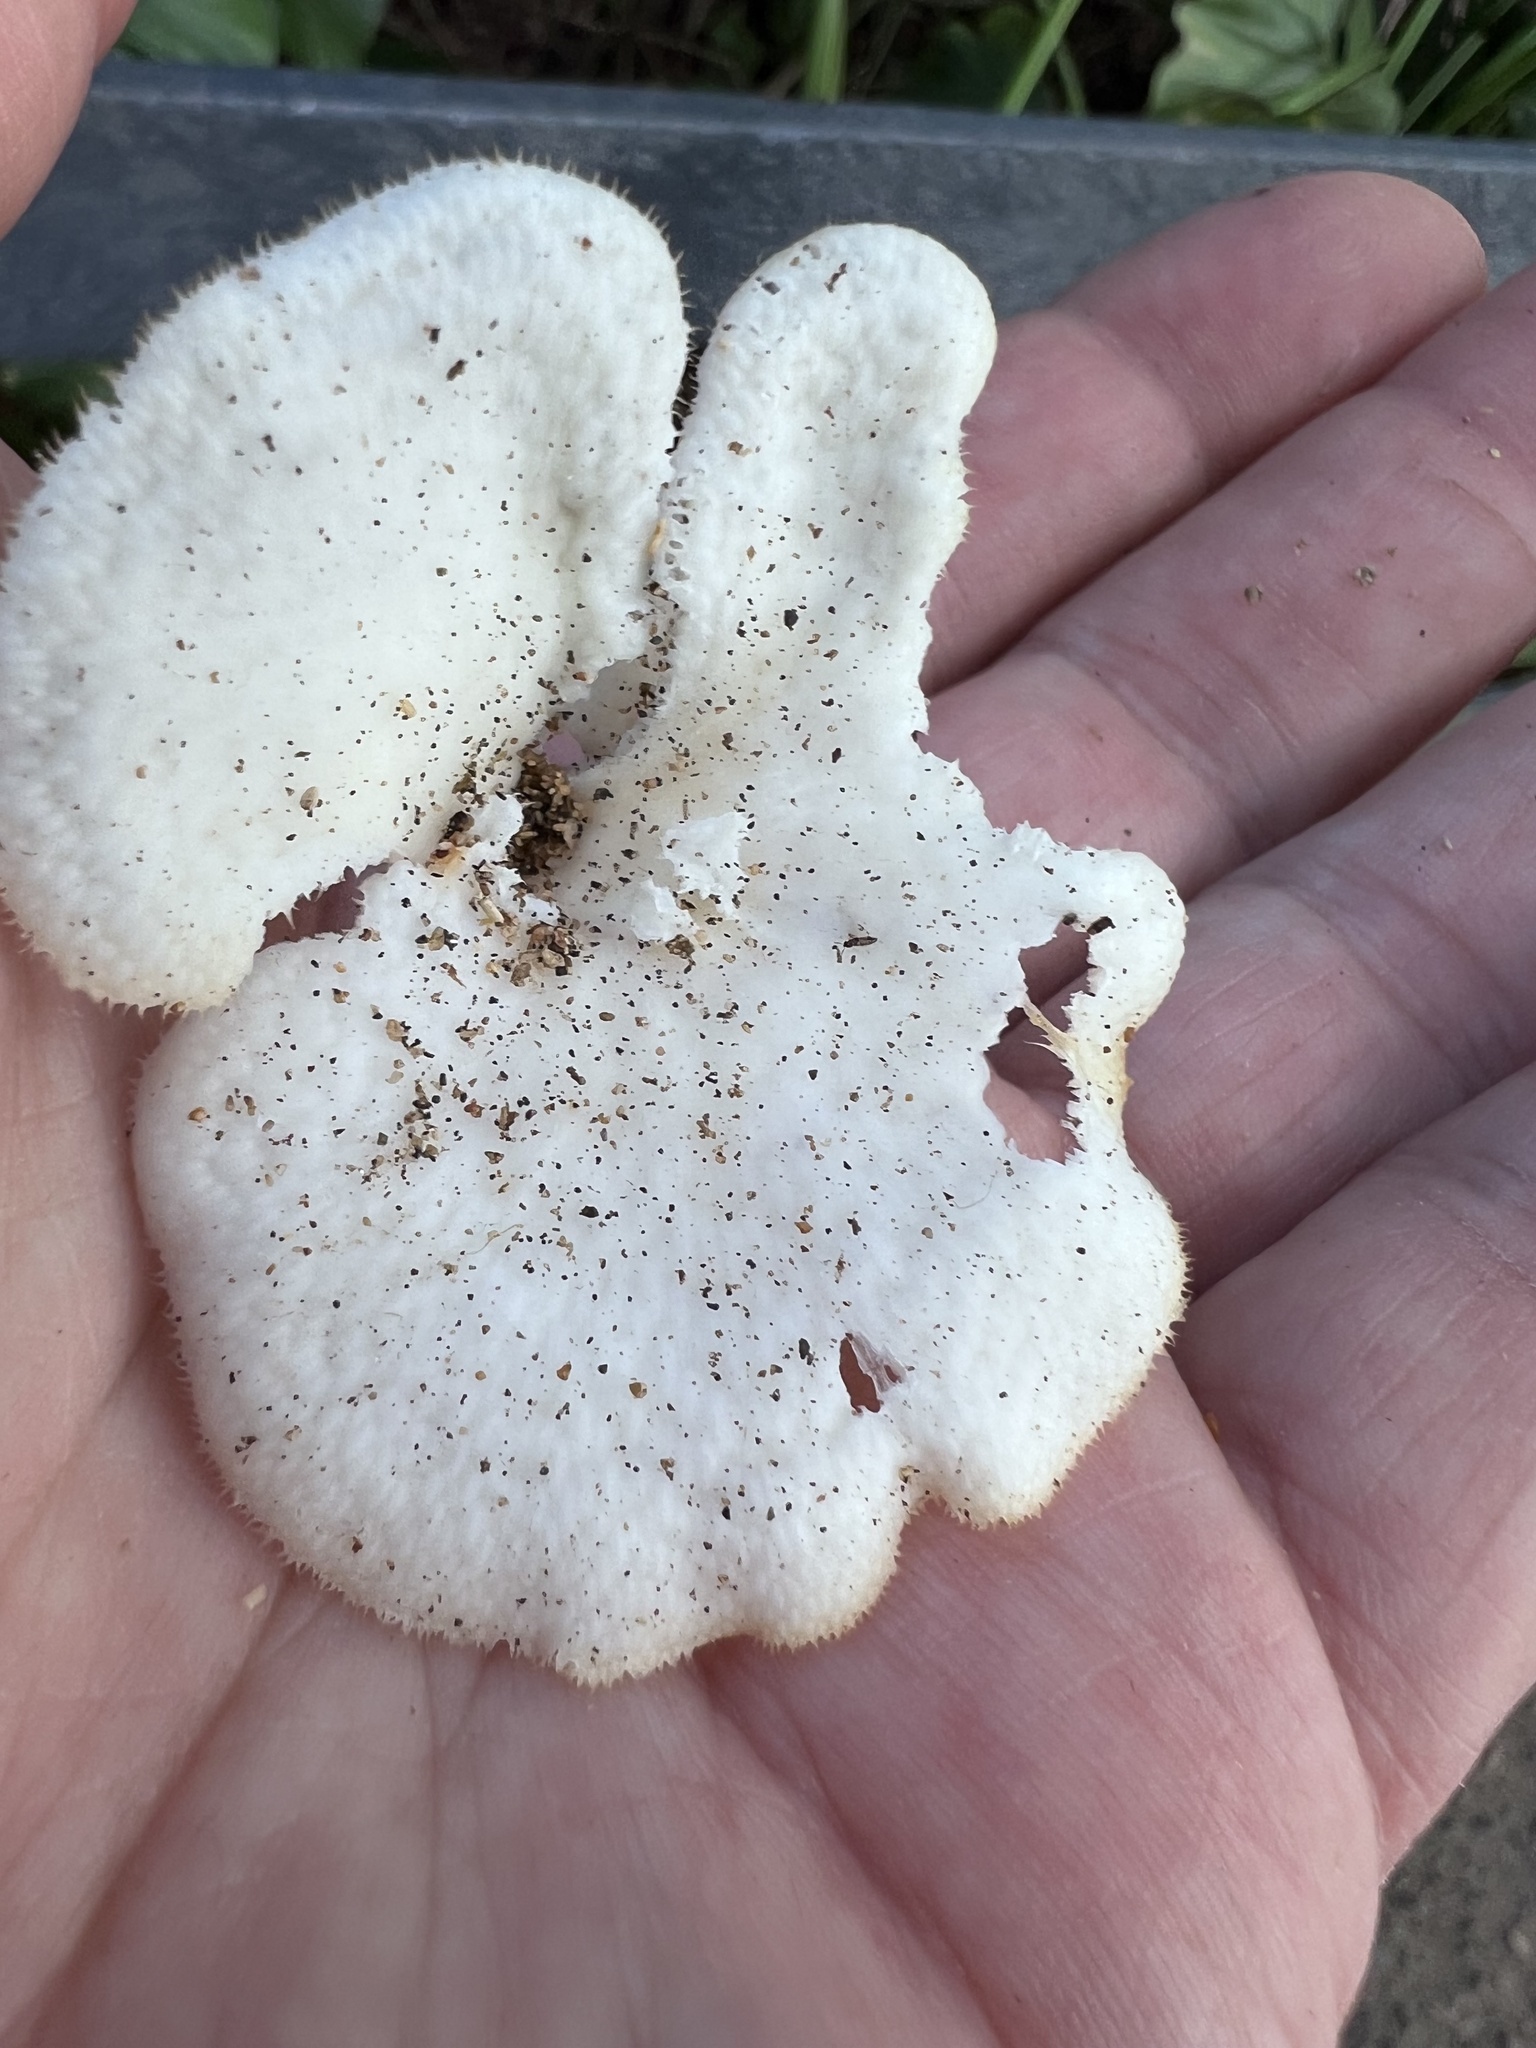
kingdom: Fungi
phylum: Basidiomycota
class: Agaricomycetes
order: Polyporales
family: Polyporaceae
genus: Favolus
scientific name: Favolus tenuiculus
